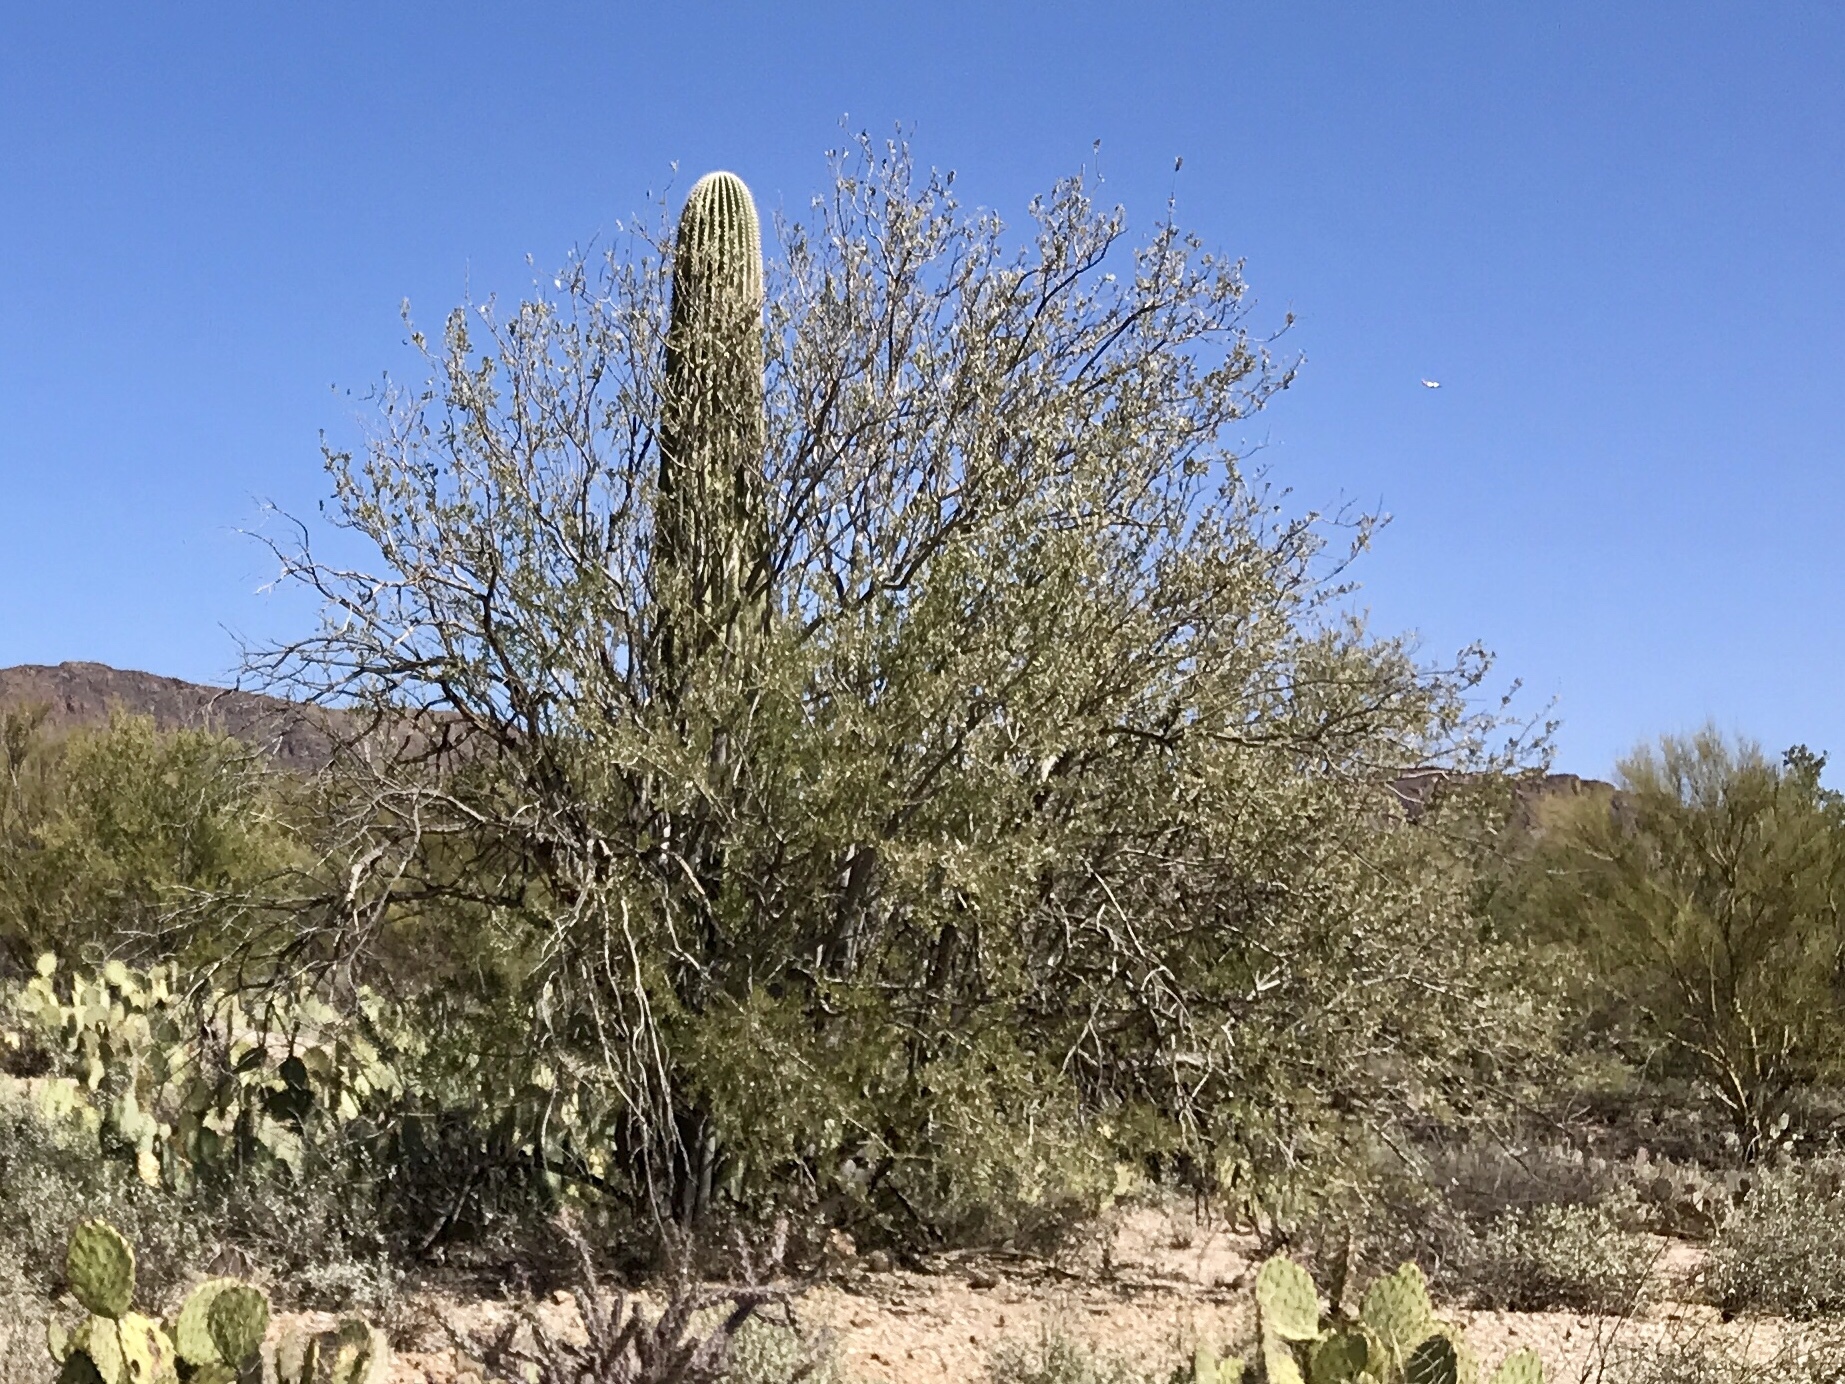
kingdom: Plantae
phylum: Tracheophyta
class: Magnoliopsida
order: Fabales
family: Fabaceae
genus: Olneya
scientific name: Olneya tesota
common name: Desert ironwood
